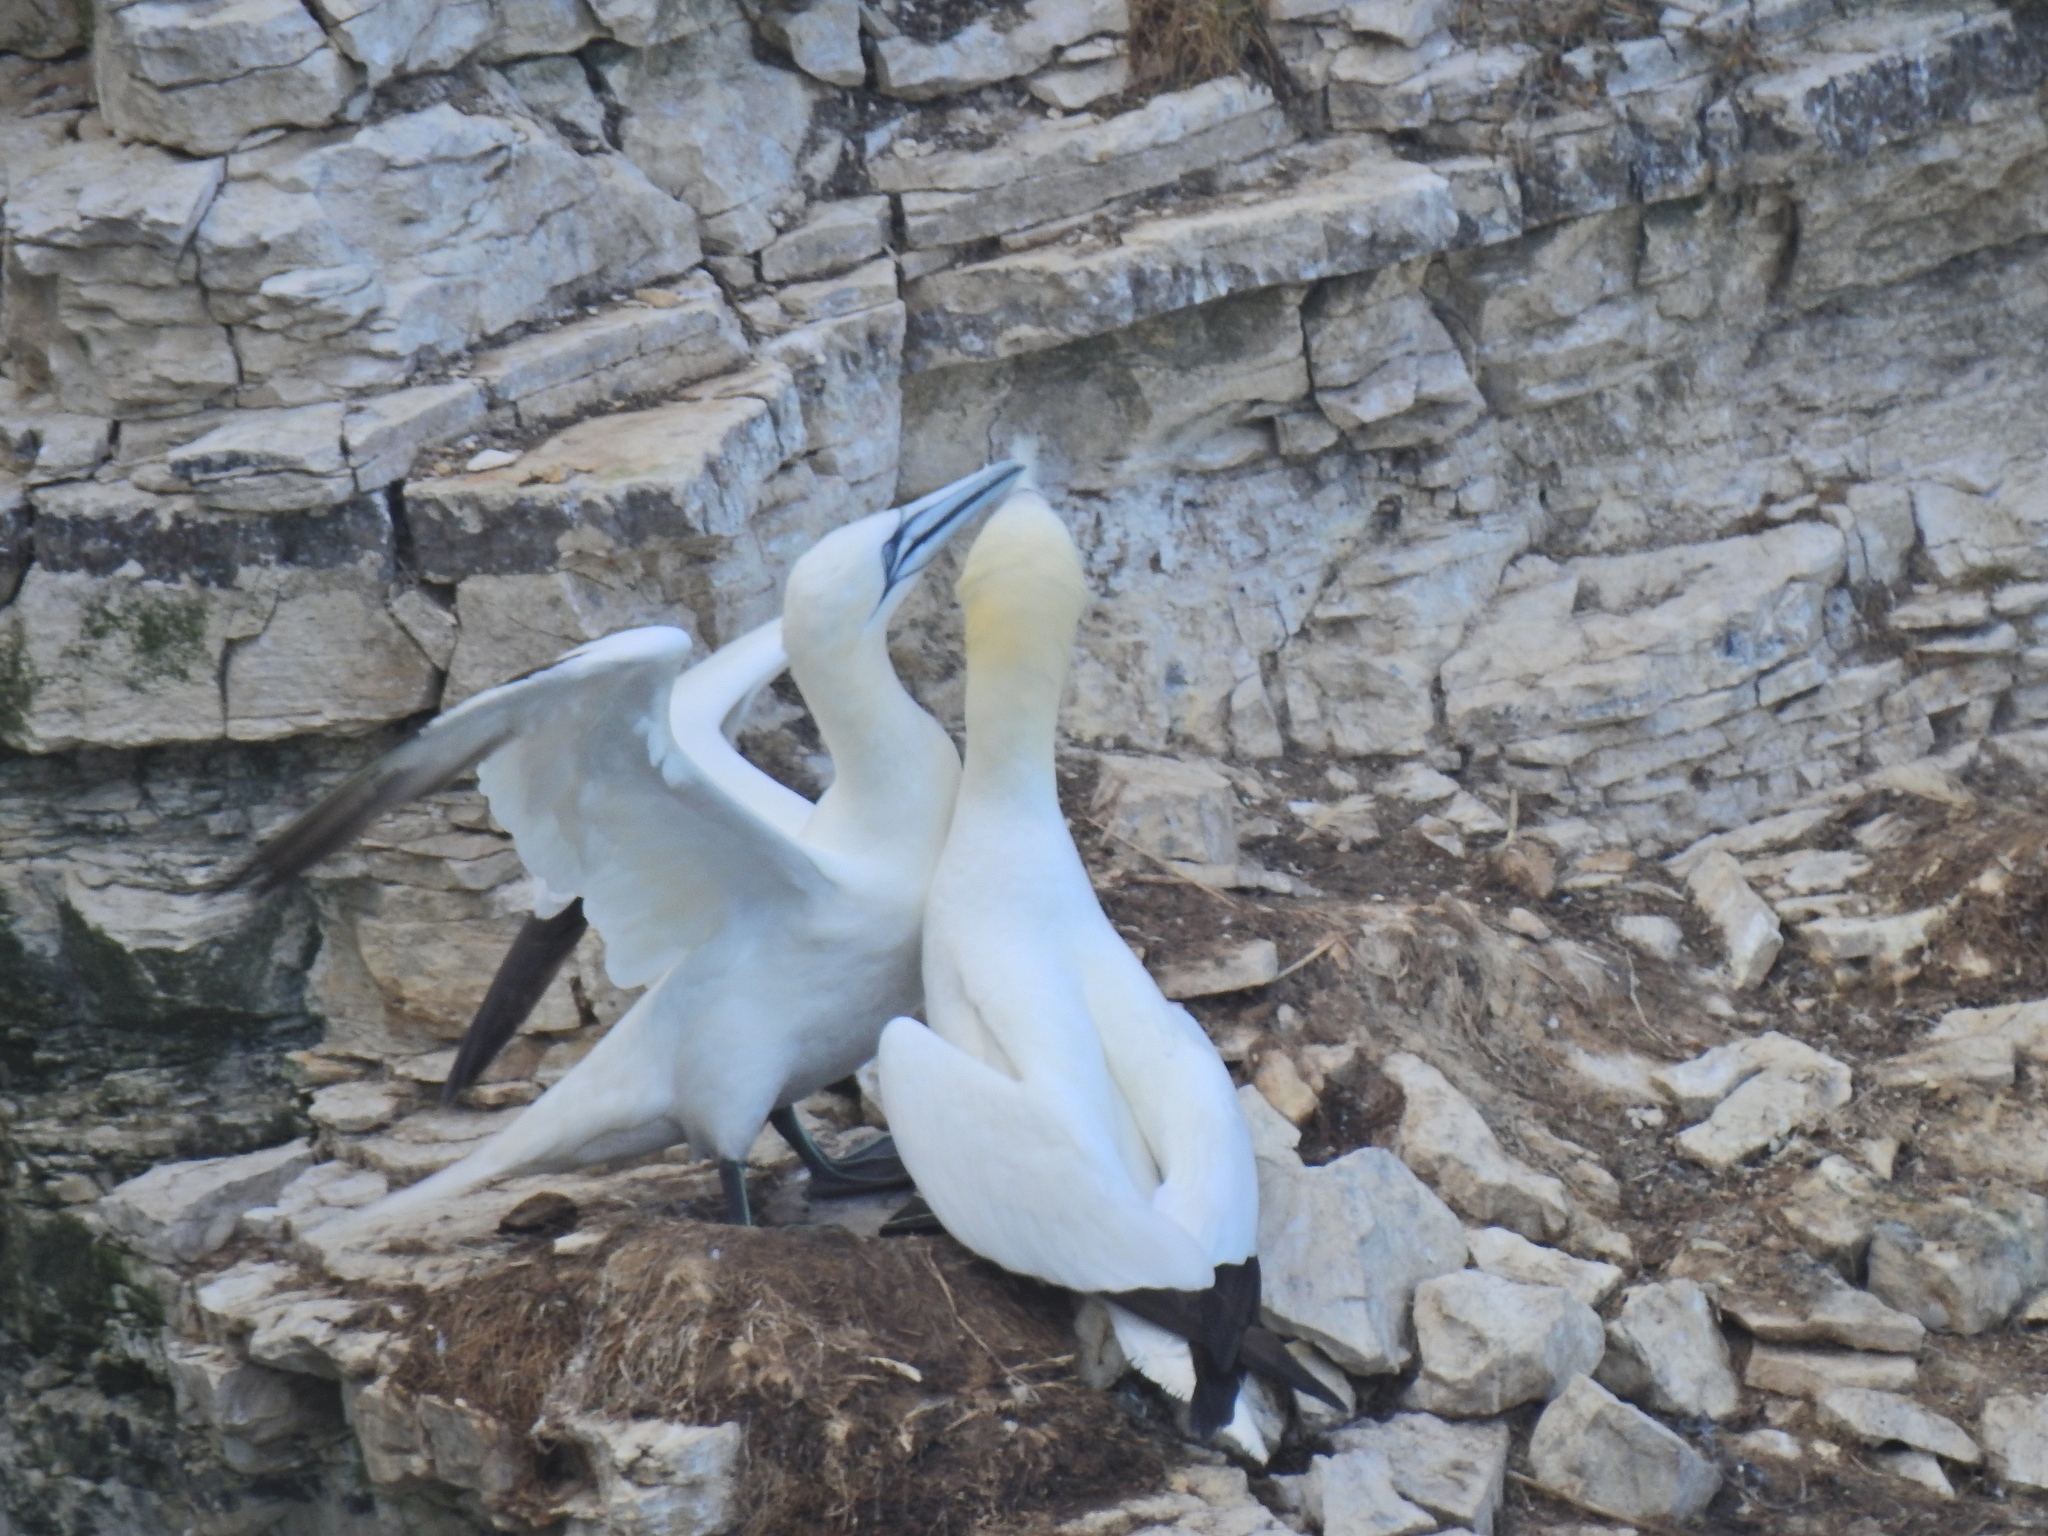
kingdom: Animalia
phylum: Chordata
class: Aves
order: Suliformes
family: Sulidae
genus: Morus
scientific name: Morus bassanus
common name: Northern gannet
